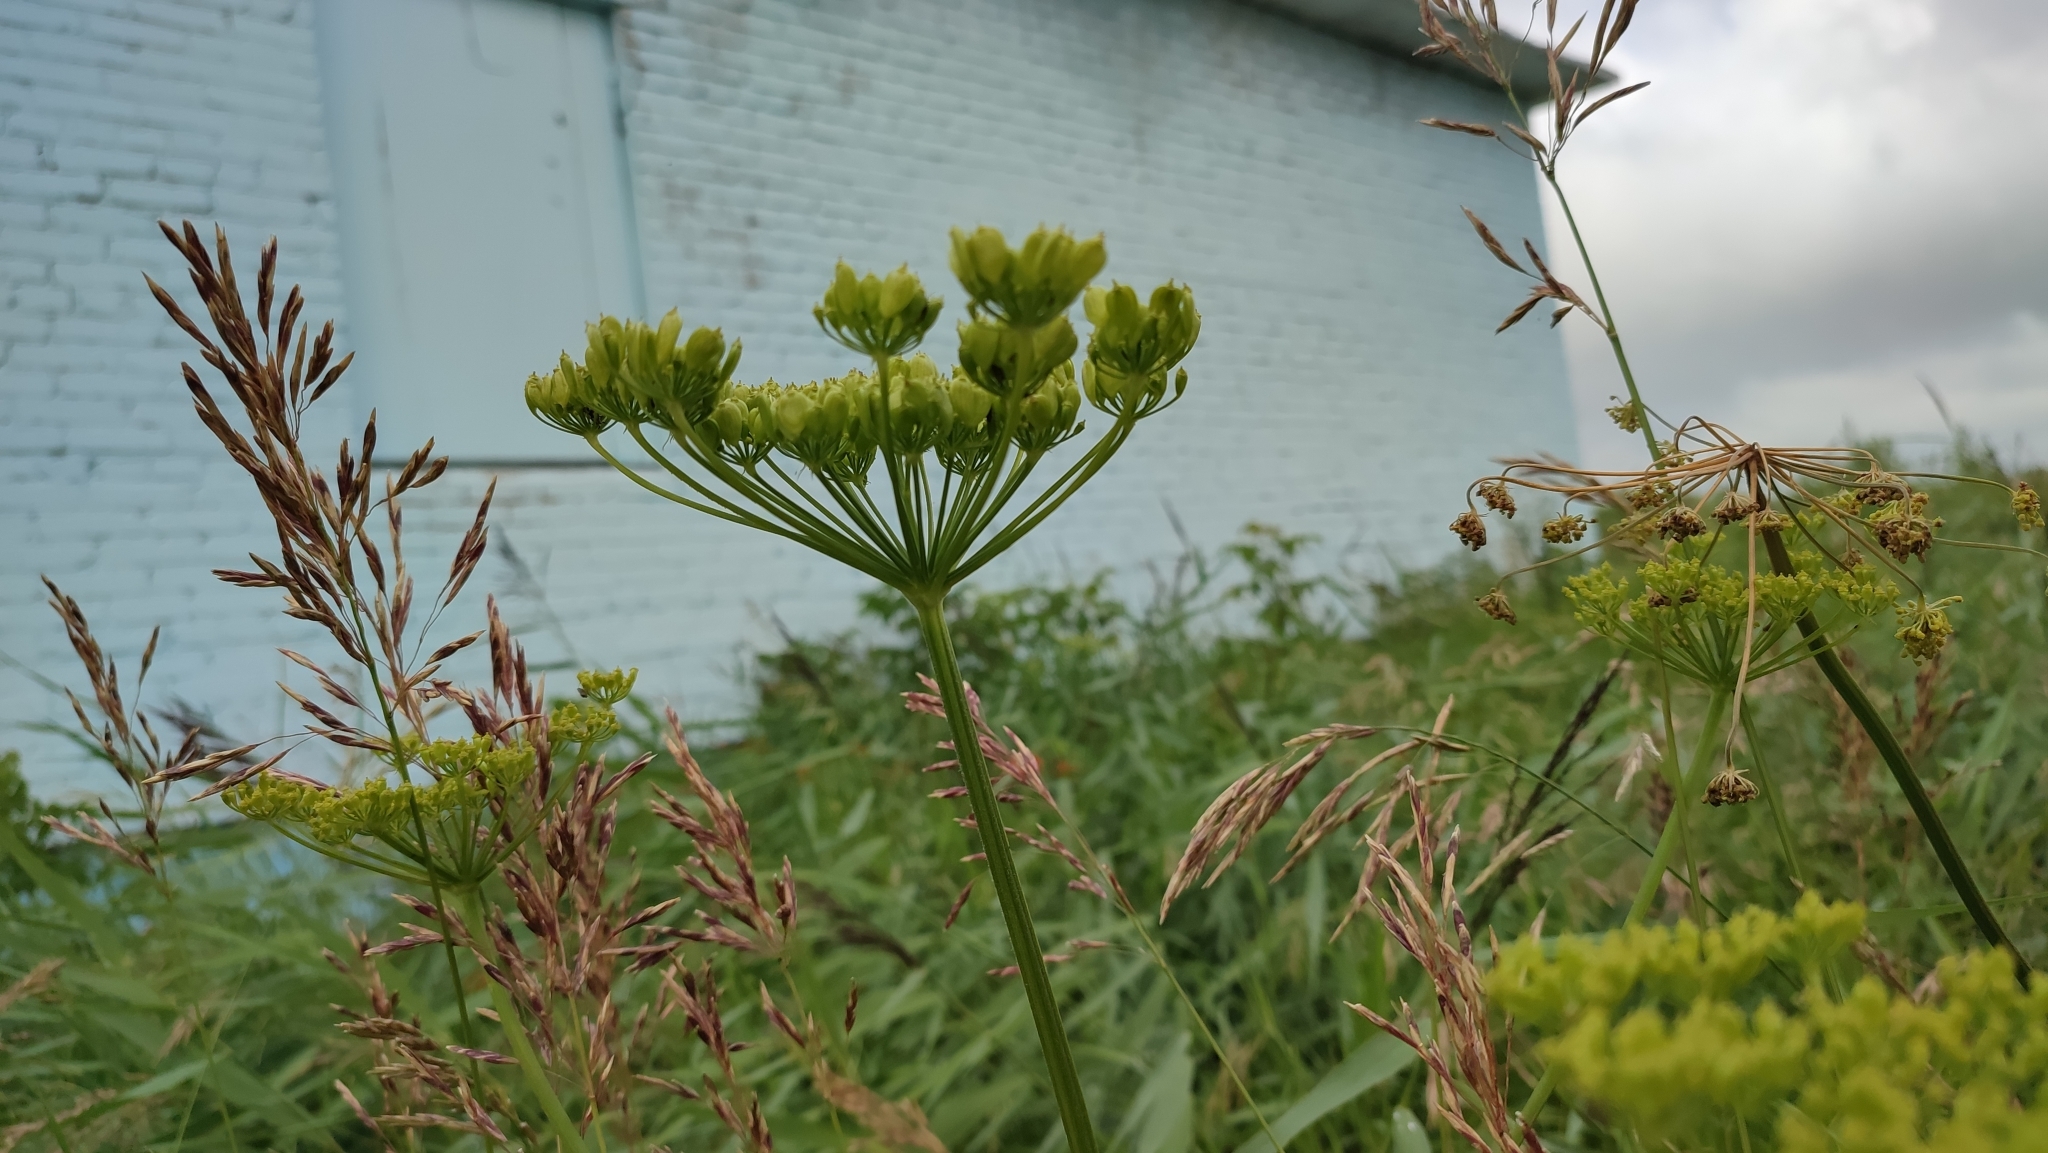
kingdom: Plantae
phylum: Tracheophyta
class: Magnoliopsida
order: Apiales
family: Apiaceae
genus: Heracleum
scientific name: Heracleum sphondylium
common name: Hogweed
